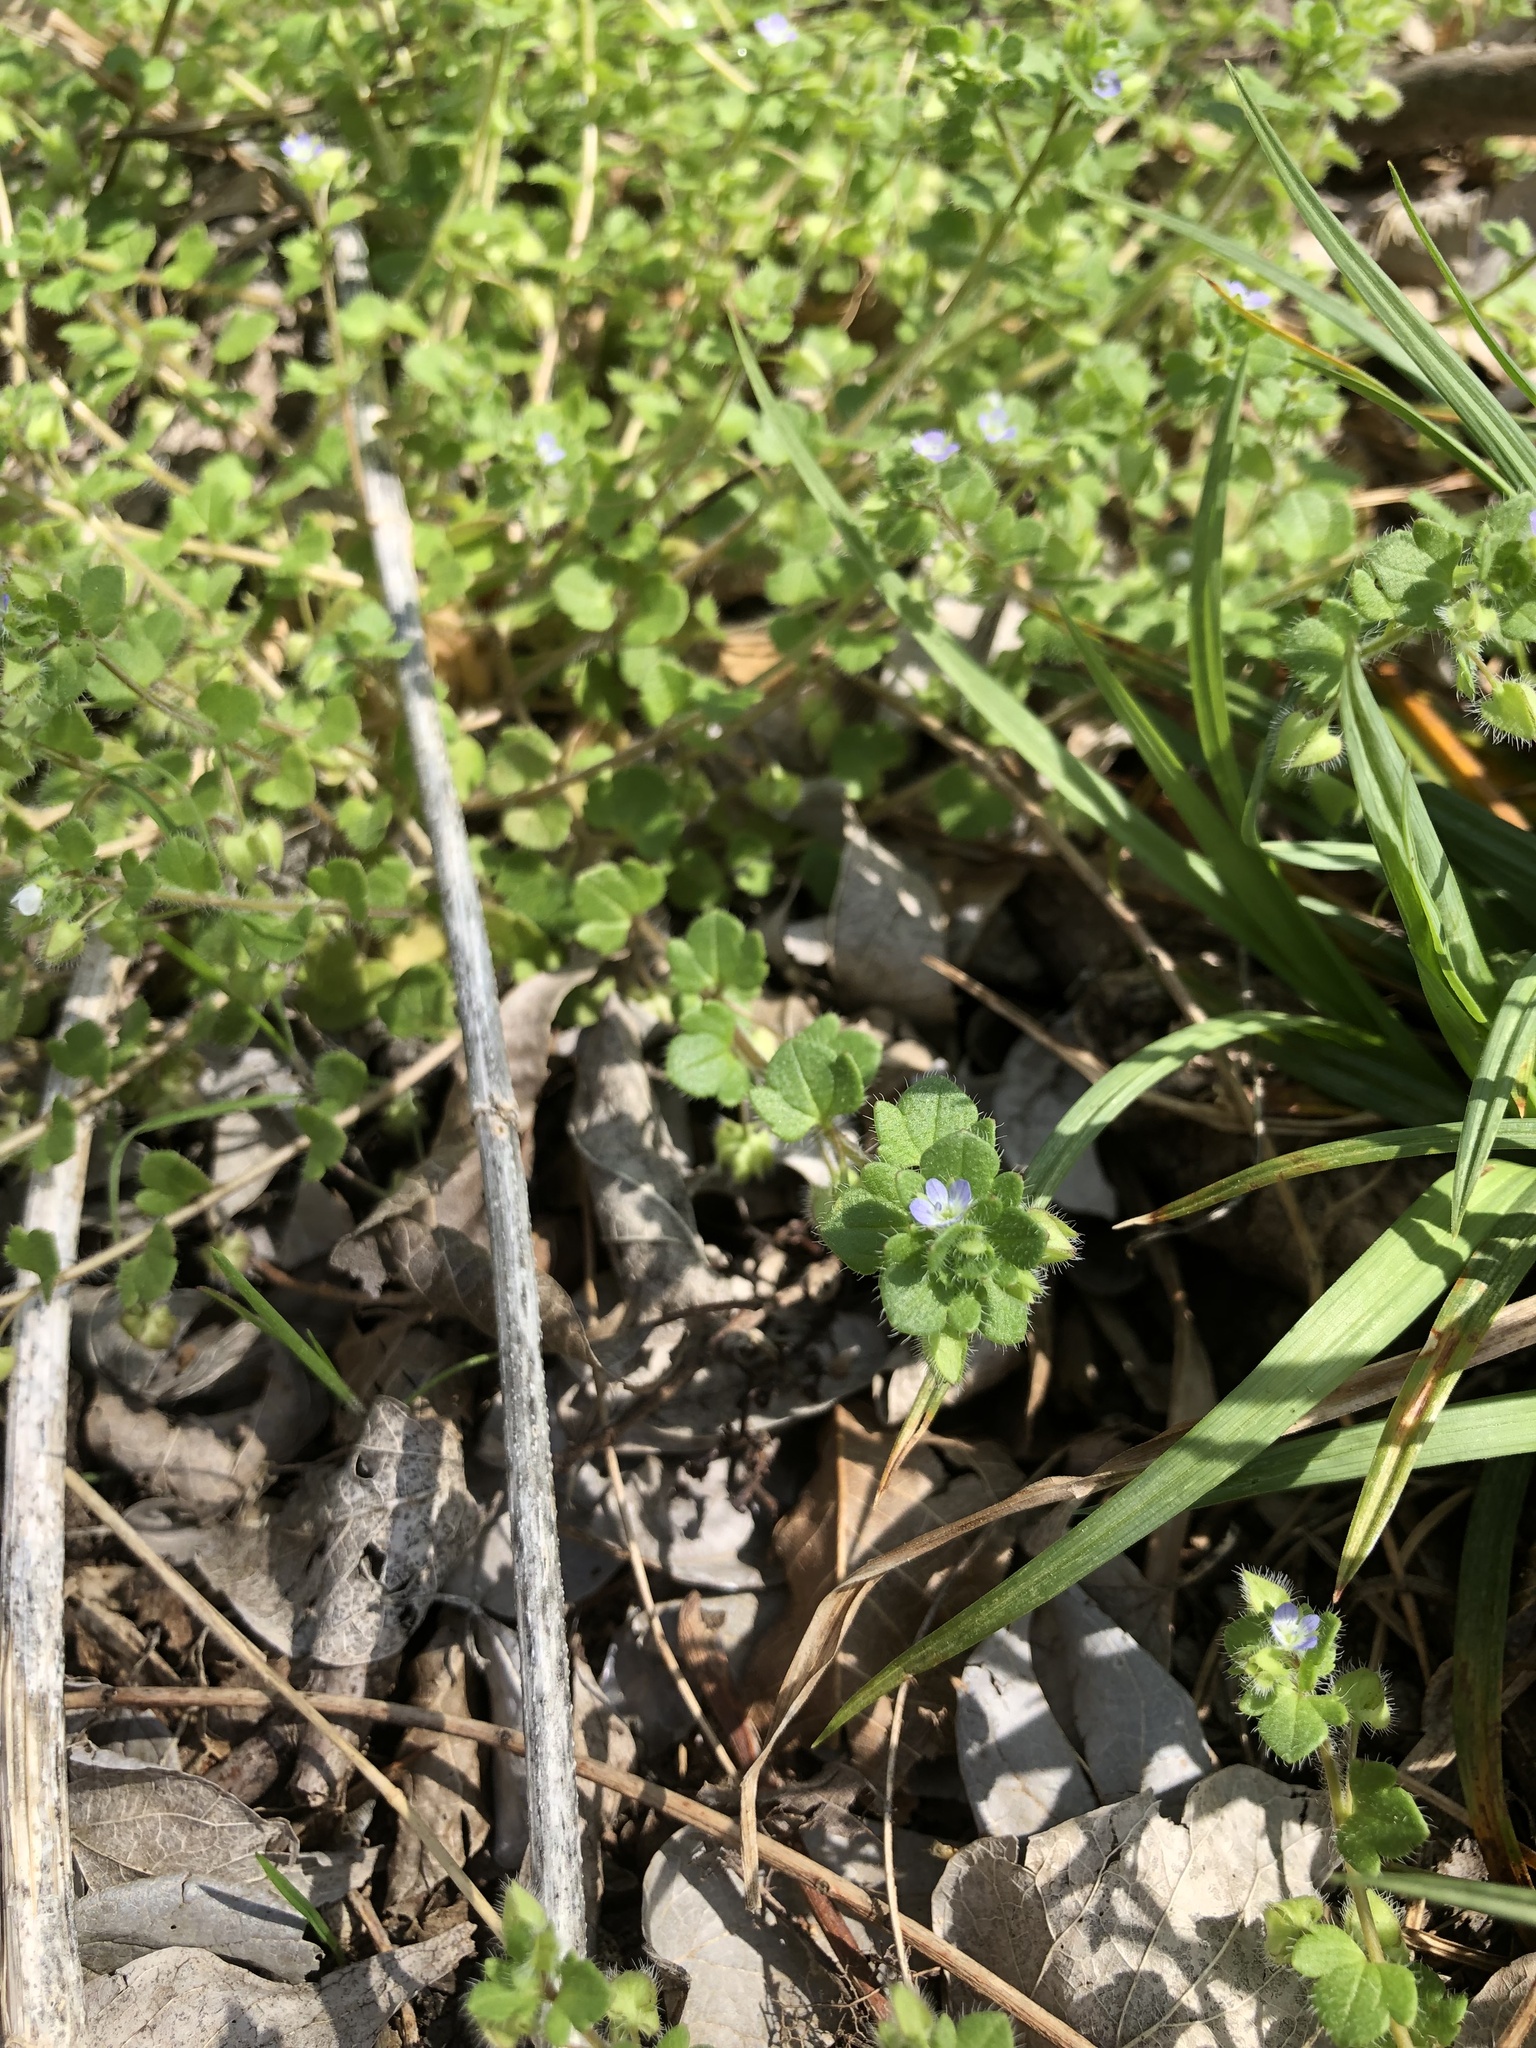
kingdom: Plantae
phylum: Tracheophyta
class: Magnoliopsida
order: Lamiales
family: Plantaginaceae
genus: Veronica
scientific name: Veronica hederifolia
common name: Ivy-leaved speedwell
